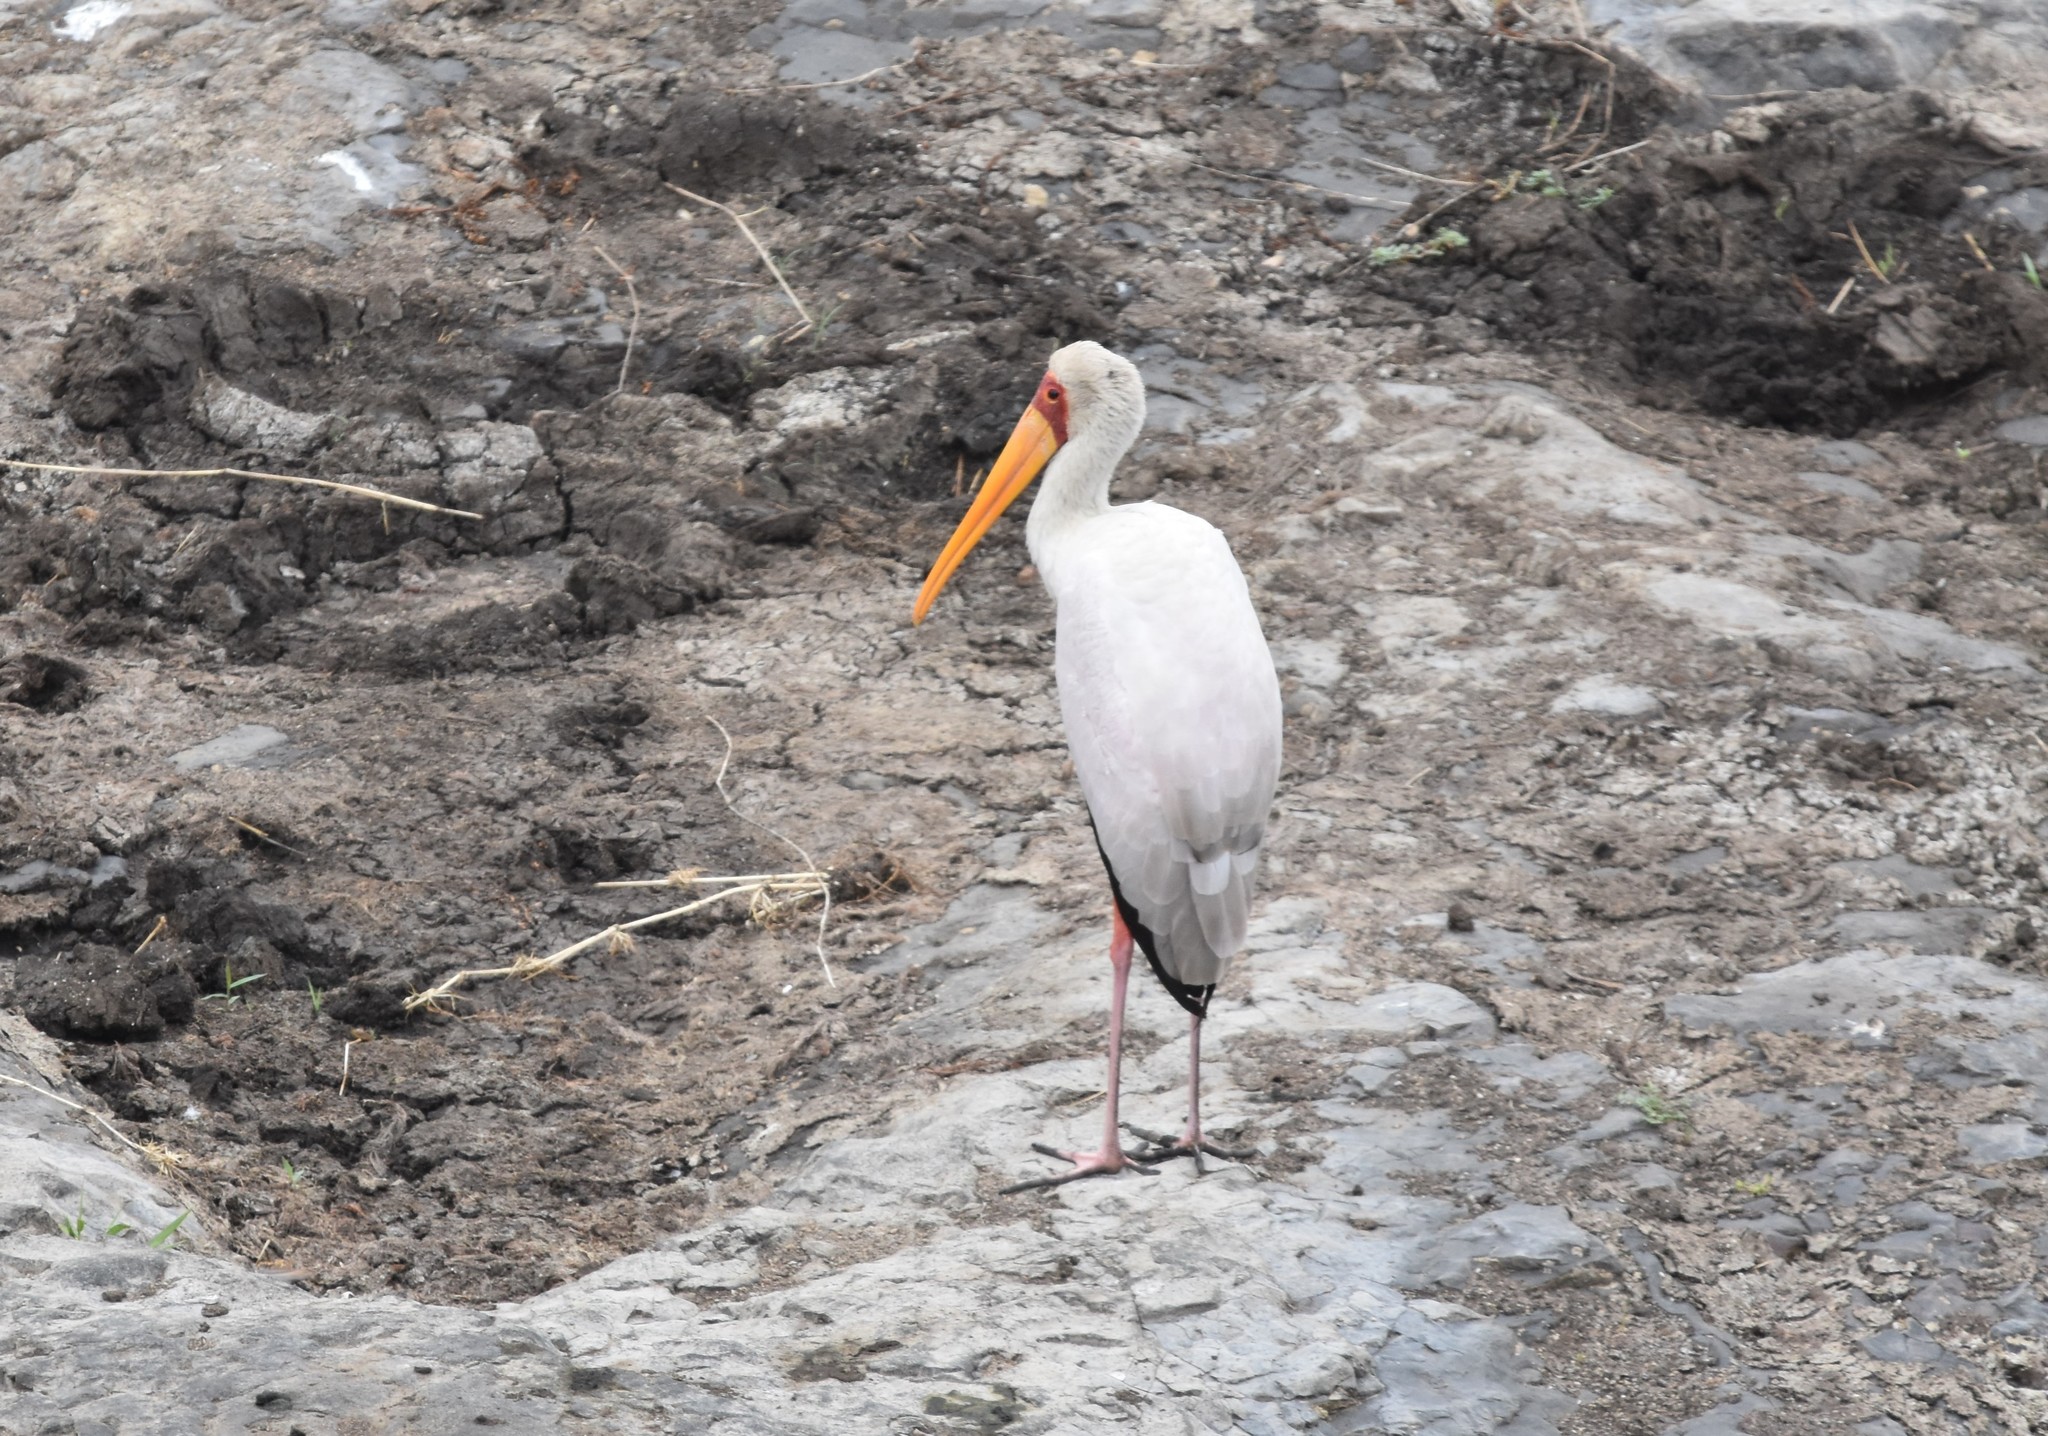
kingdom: Animalia
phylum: Chordata
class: Aves
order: Ciconiiformes
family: Ciconiidae
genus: Mycteria
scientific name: Mycteria ibis
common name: Yellow-billed stork
